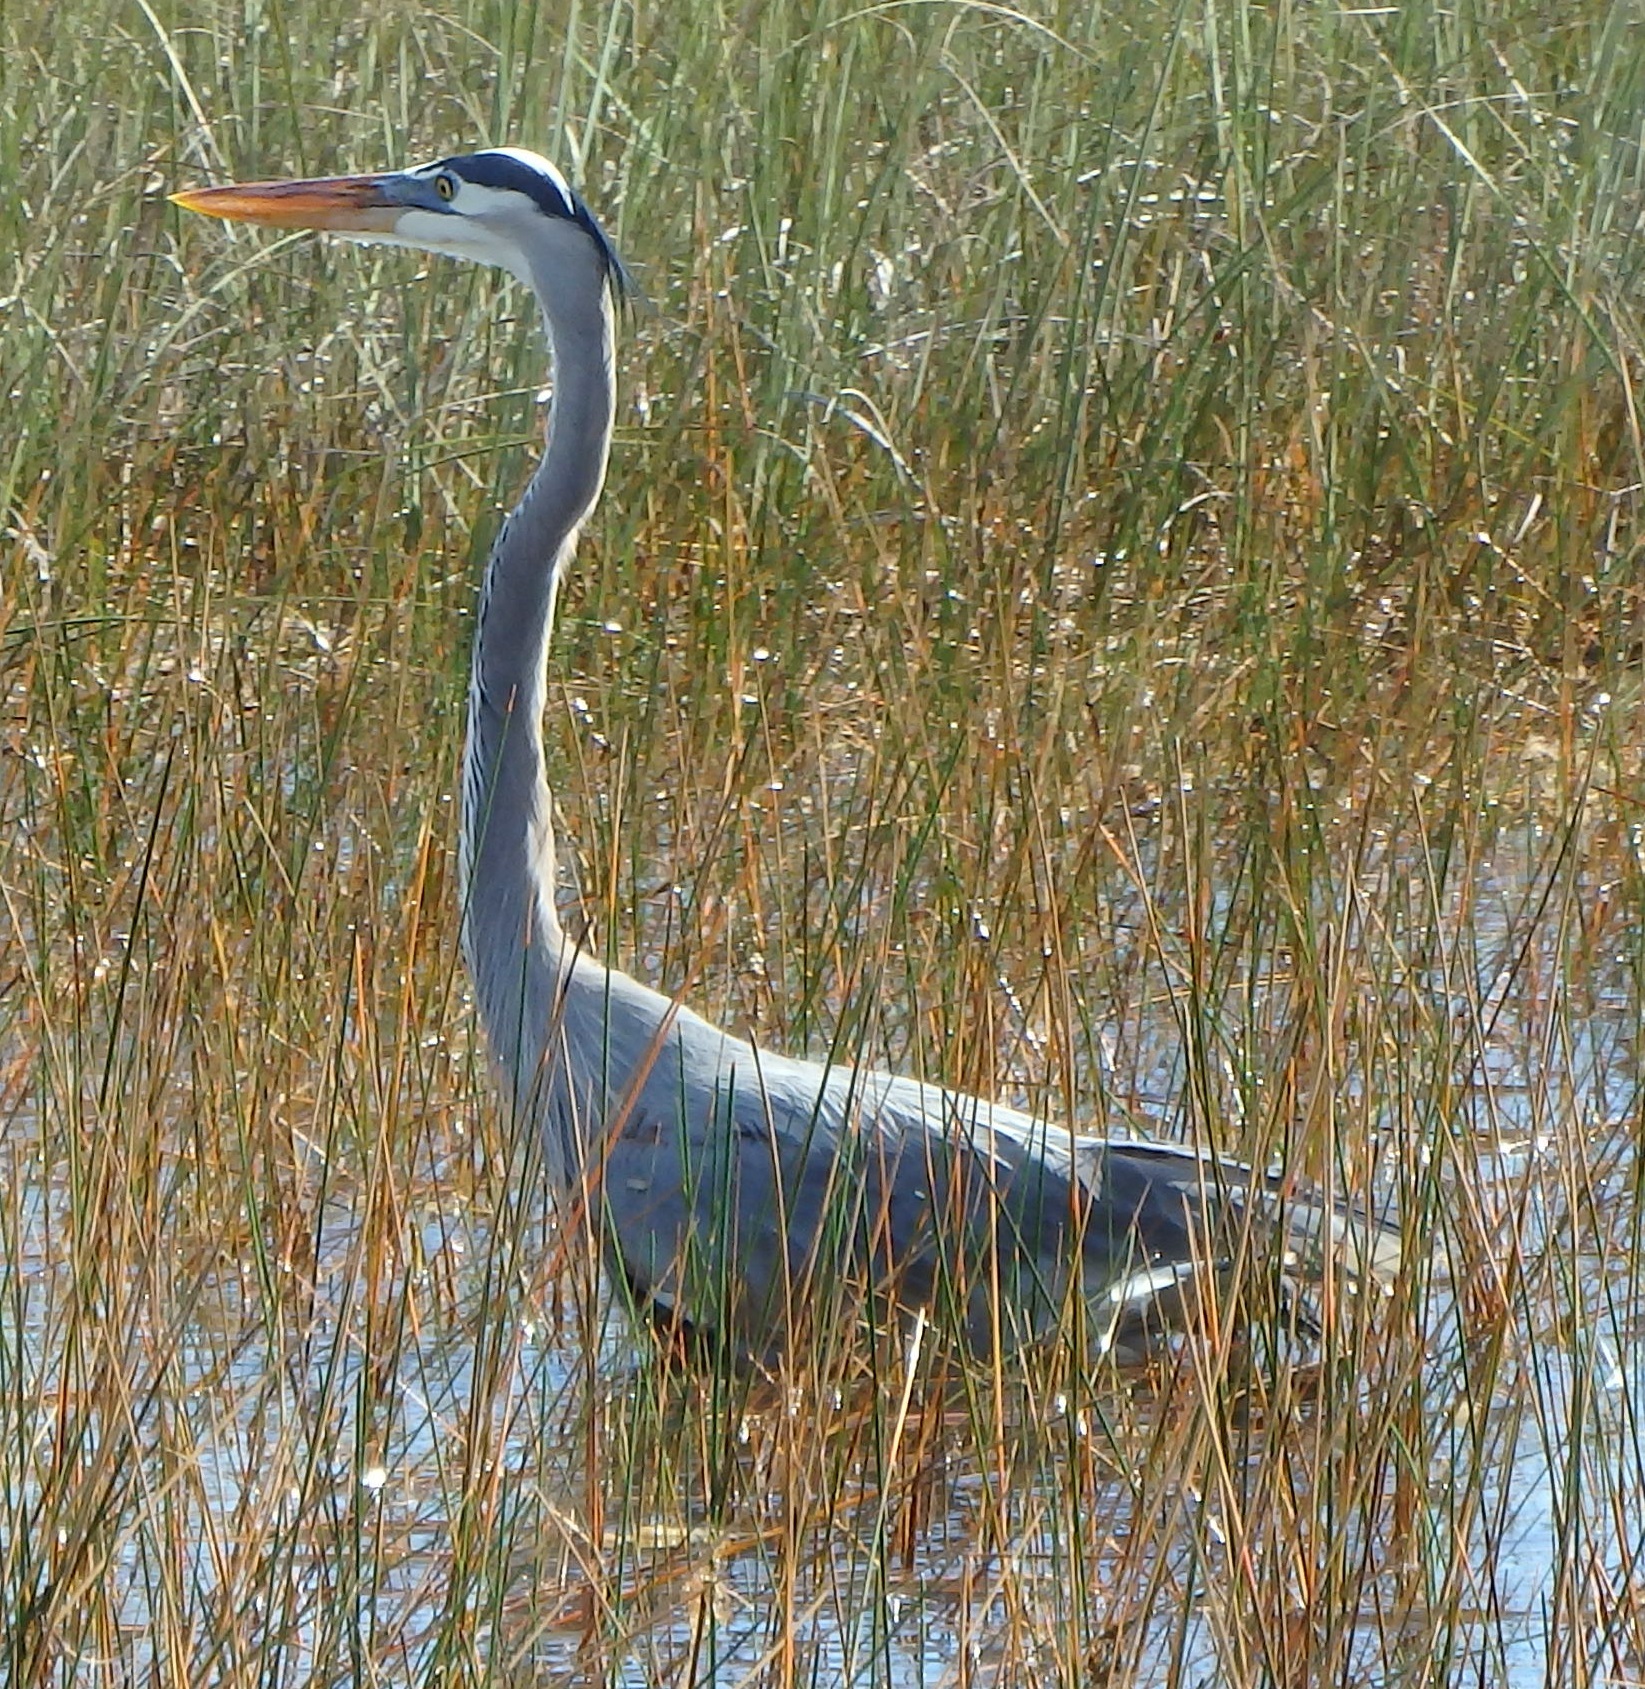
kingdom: Animalia
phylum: Chordata
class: Aves
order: Pelecaniformes
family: Ardeidae
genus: Ardea
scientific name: Ardea herodias
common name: Great blue heron
